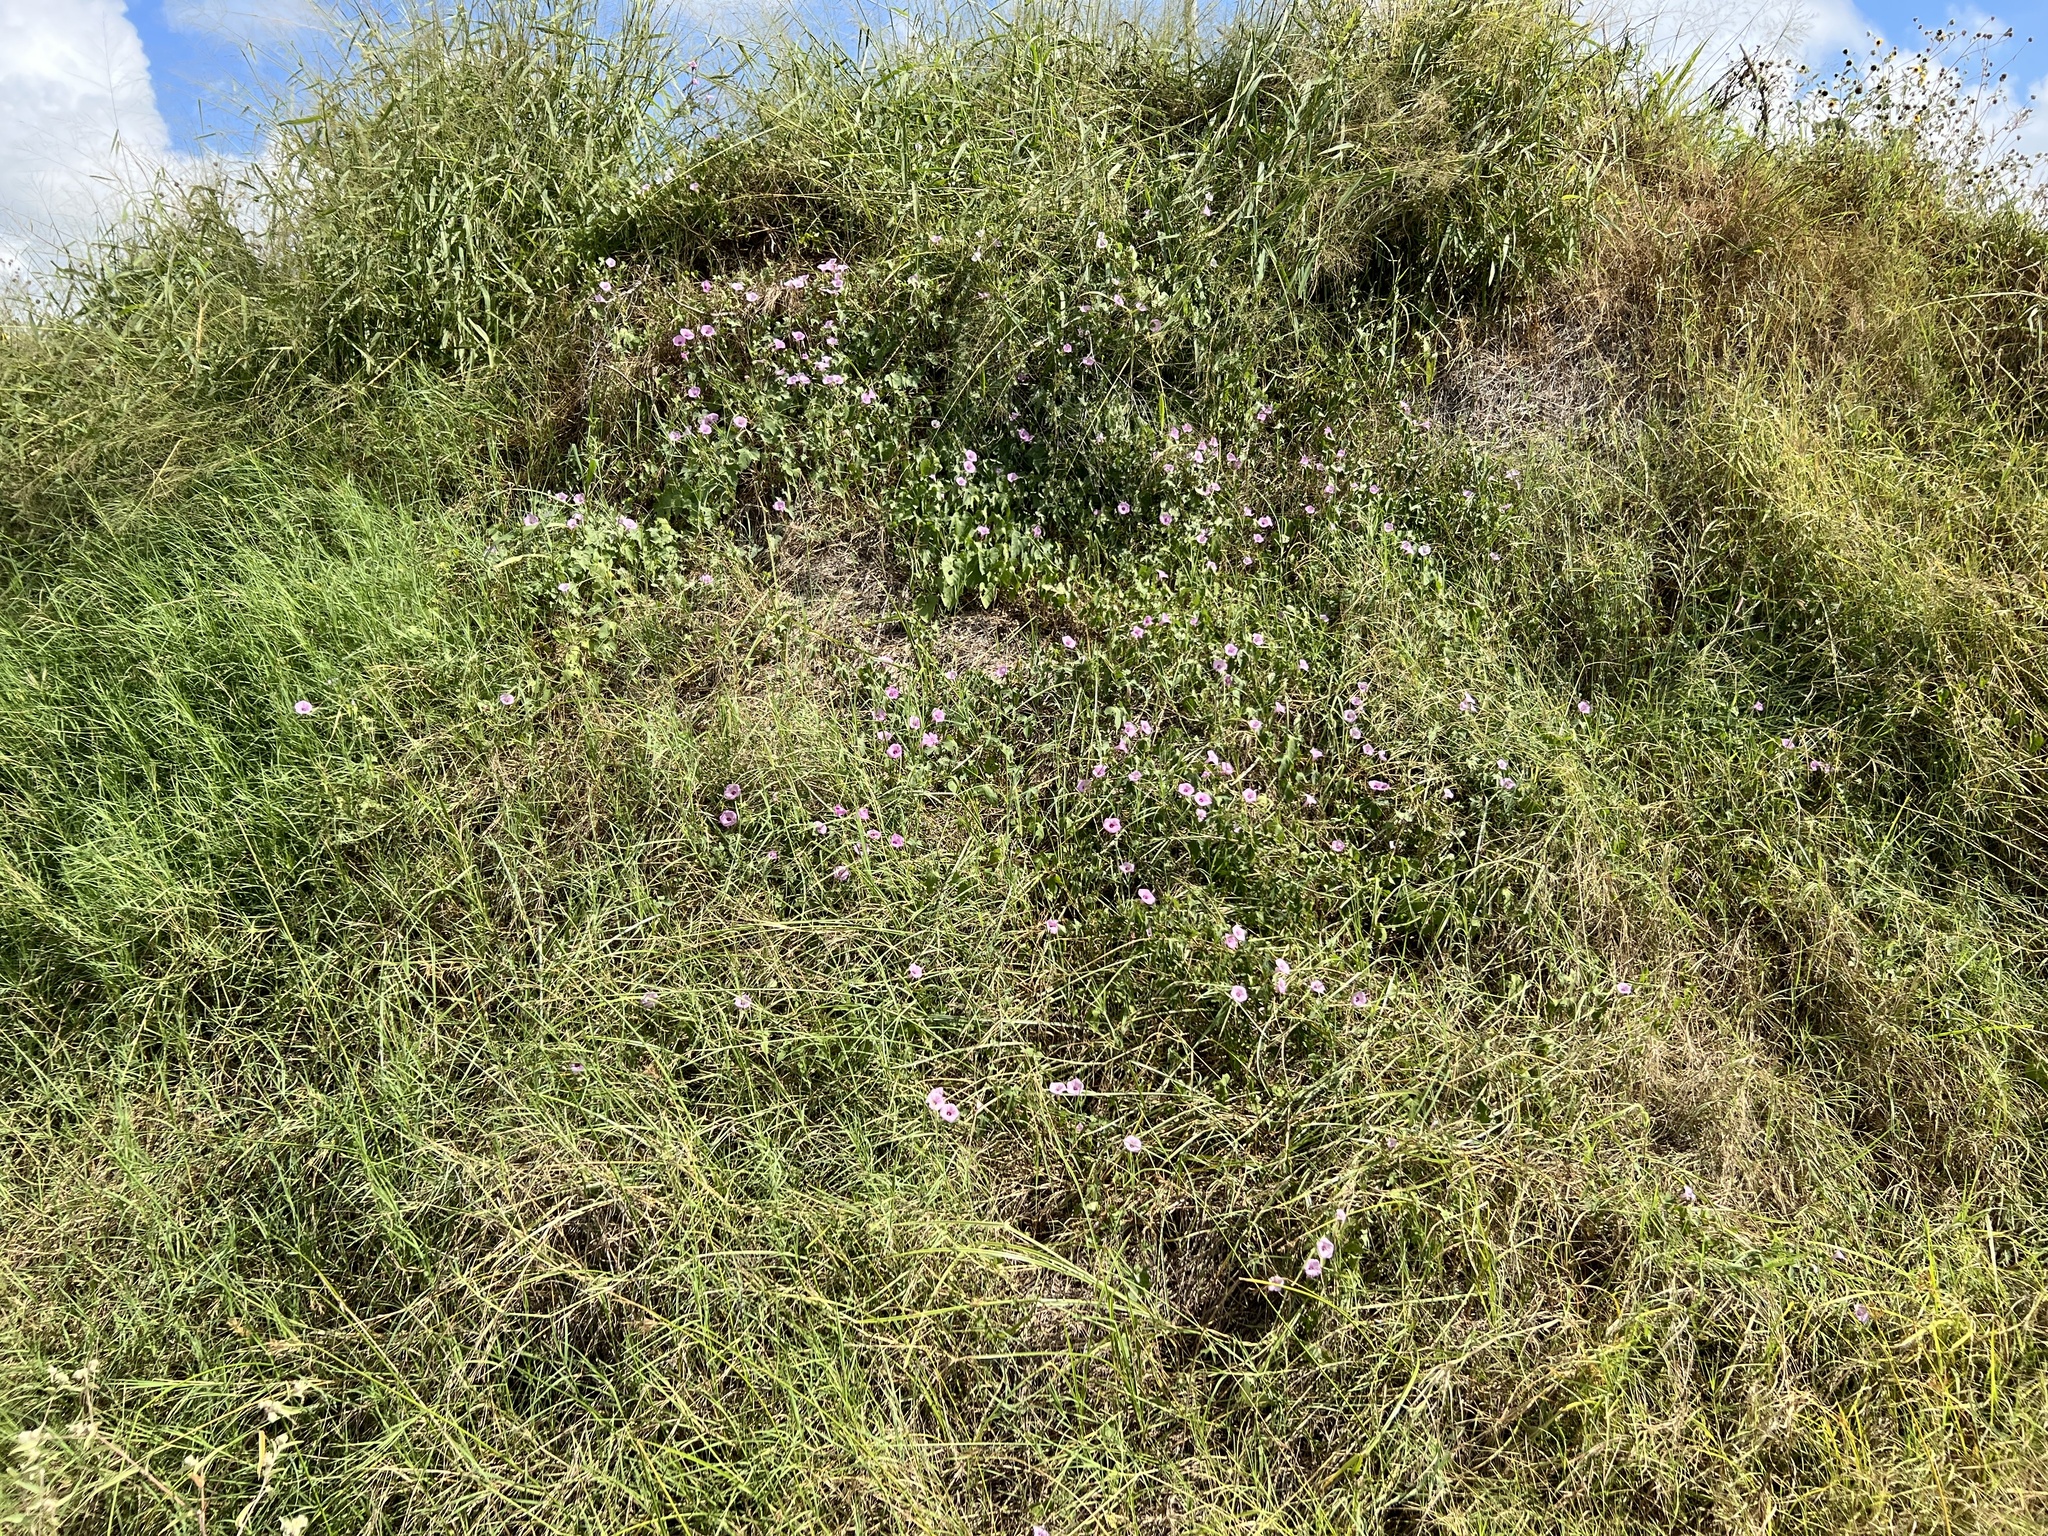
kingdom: Plantae
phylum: Tracheophyta
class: Magnoliopsida
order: Solanales
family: Convolvulaceae
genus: Ipomoea
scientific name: Ipomoea cordatotriloba
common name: Cotton morning glory
